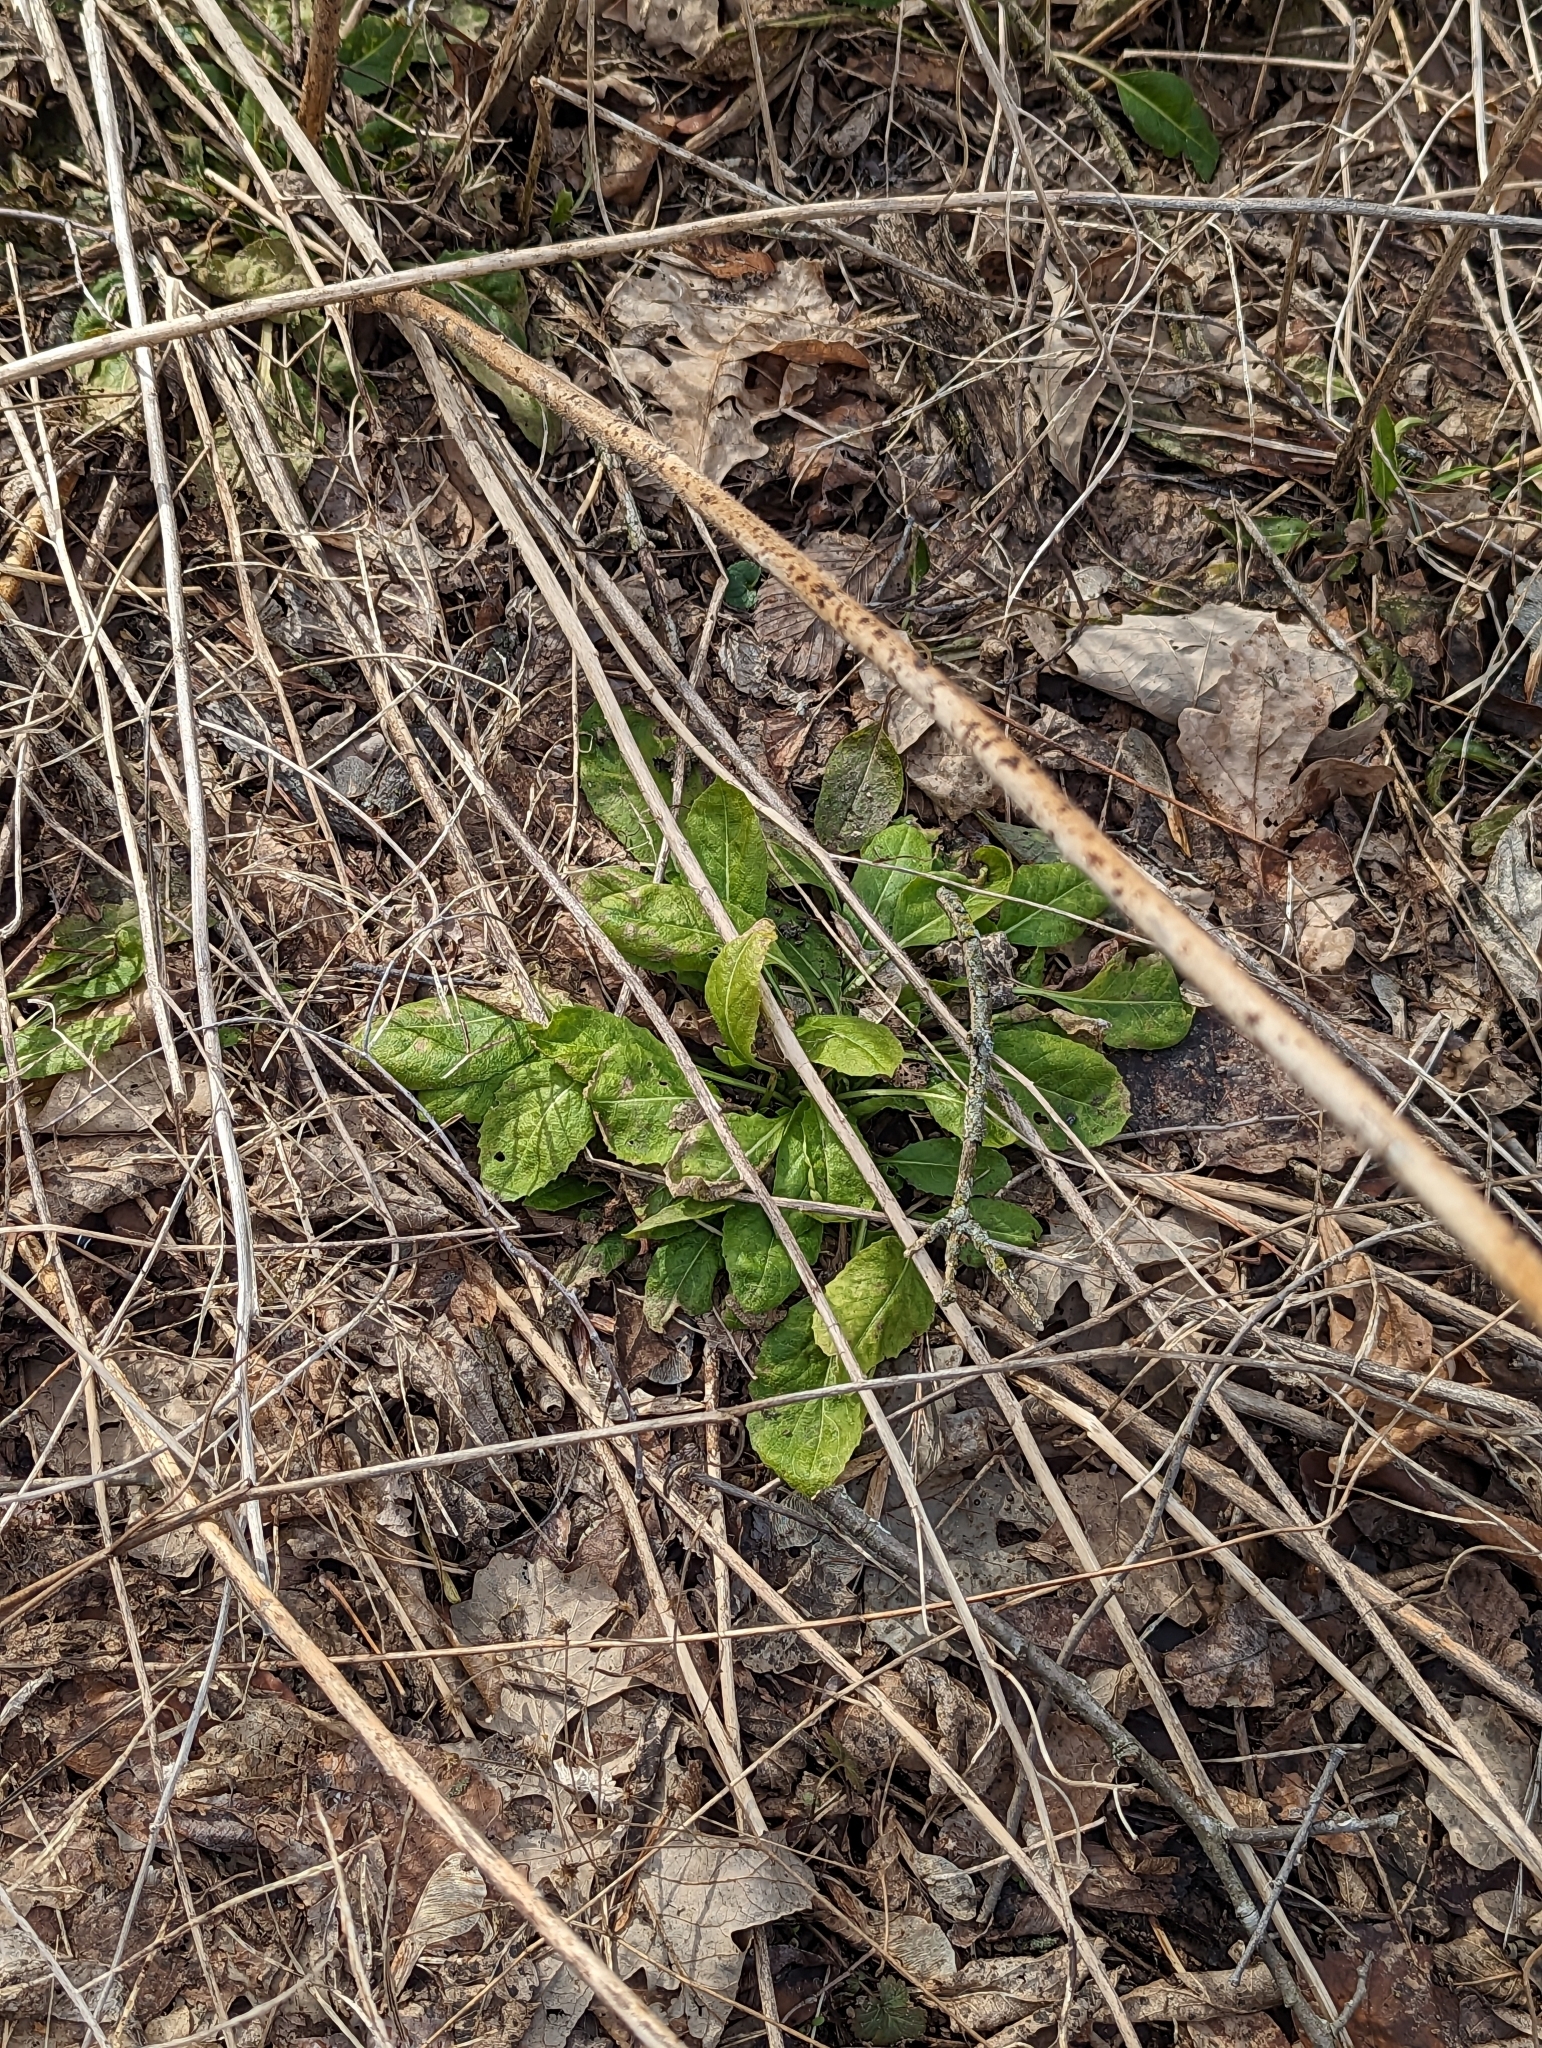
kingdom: Plantae
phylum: Tracheophyta
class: Magnoliopsida
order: Brassicales
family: Brassicaceae
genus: Hesperis
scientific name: Hesperis matronalis
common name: Dame's-violet
